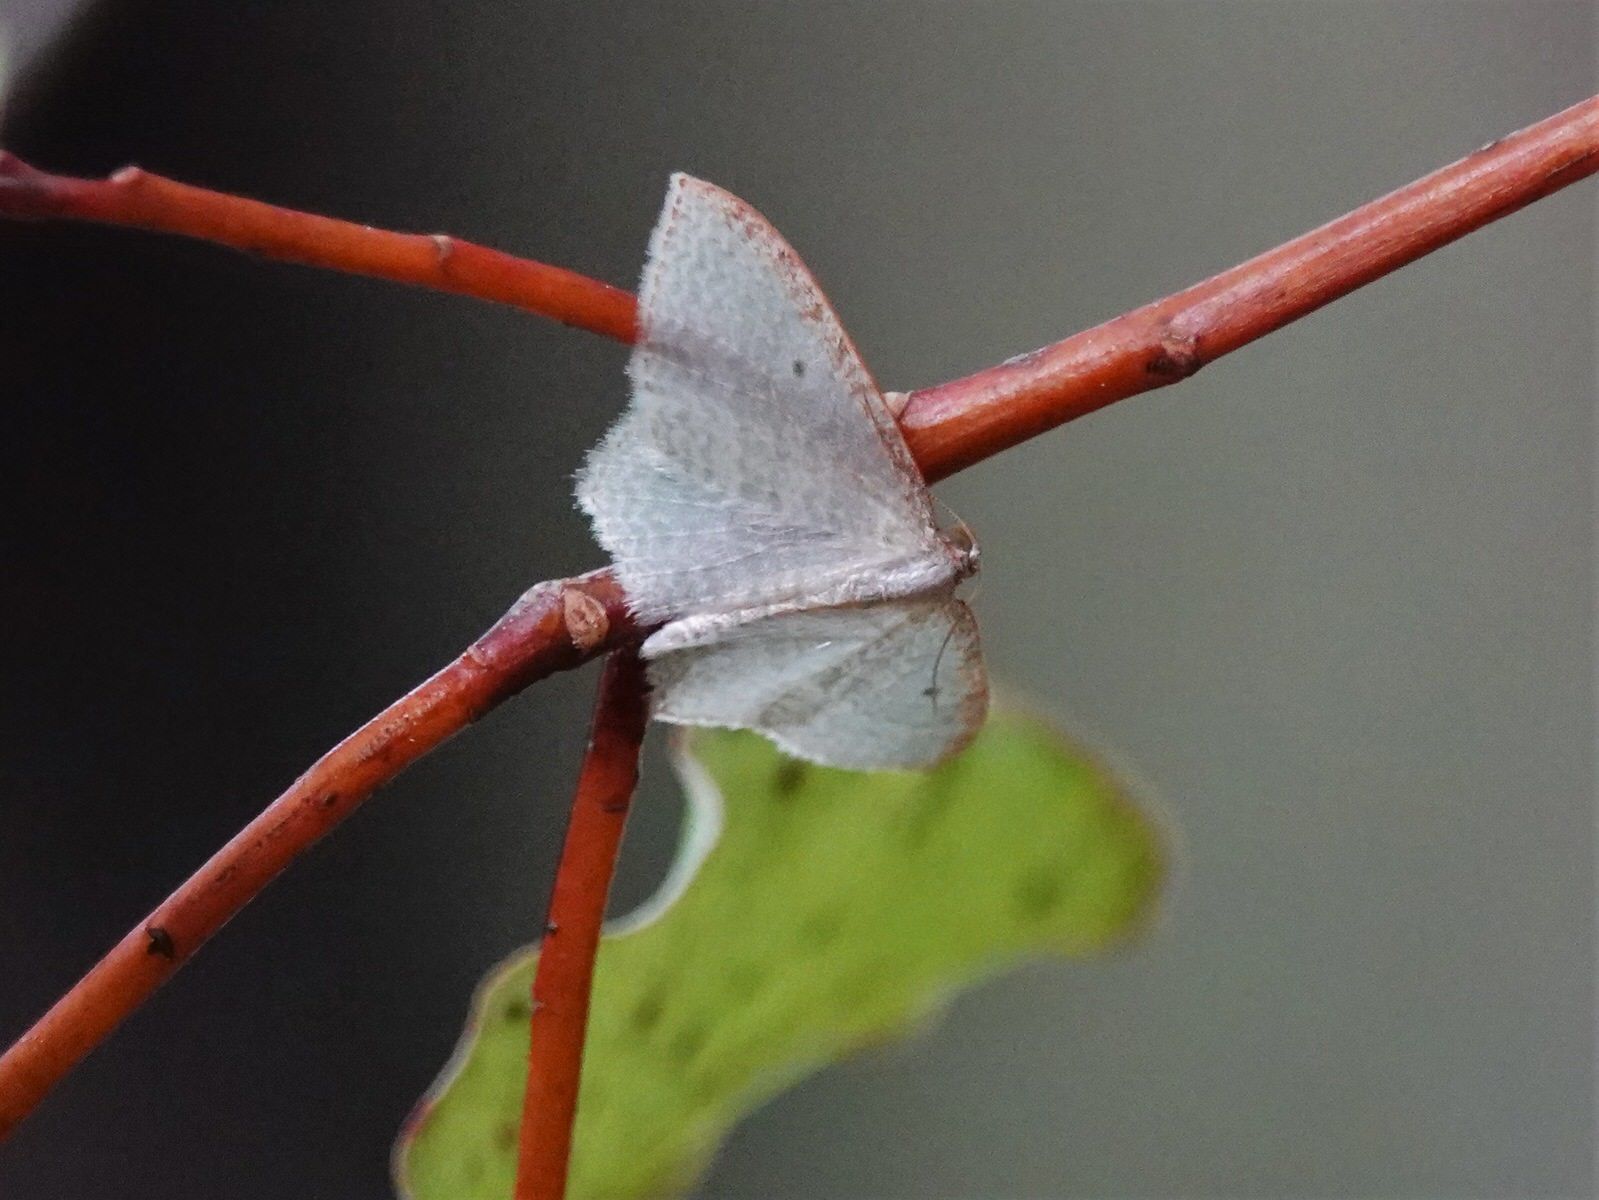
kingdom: Animalia
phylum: Arthropoda
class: Insecta
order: Lepidoptera
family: Geometridae
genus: Poecilasthena
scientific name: Poecilasthena pulchraria
